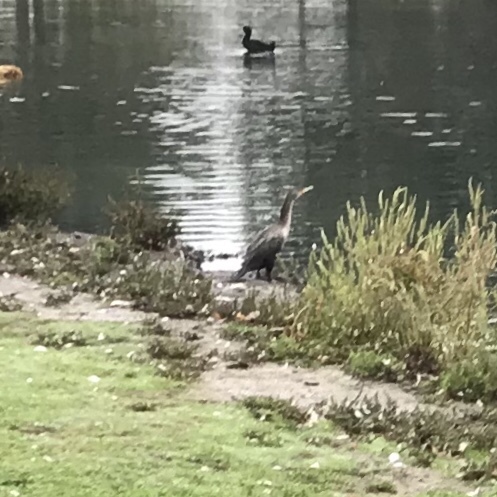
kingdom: Animalia
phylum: Chordata
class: Aves
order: Suliformes
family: Phalacrocoracidae
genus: Phalacrocorax
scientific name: Phalacrocorax auritus
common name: Double-crested cormorant
